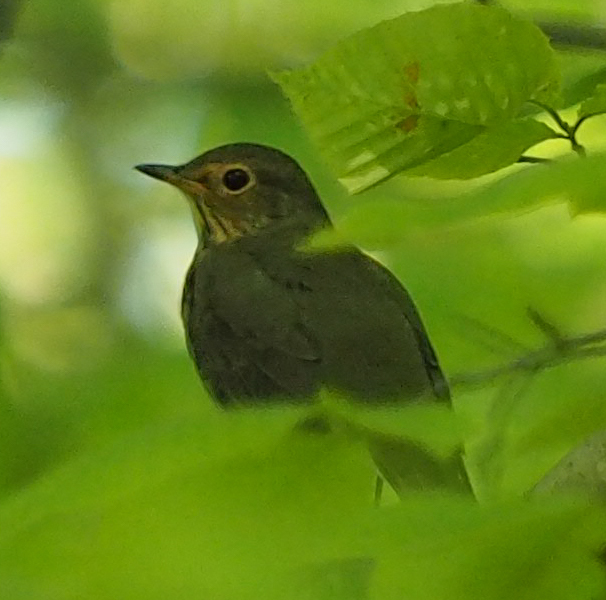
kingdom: Animalia
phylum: Chordata
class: Aves
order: Passeriformes
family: Turdidae
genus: Catharus
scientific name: Catharus ustulatus
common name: Swainson's thrush
